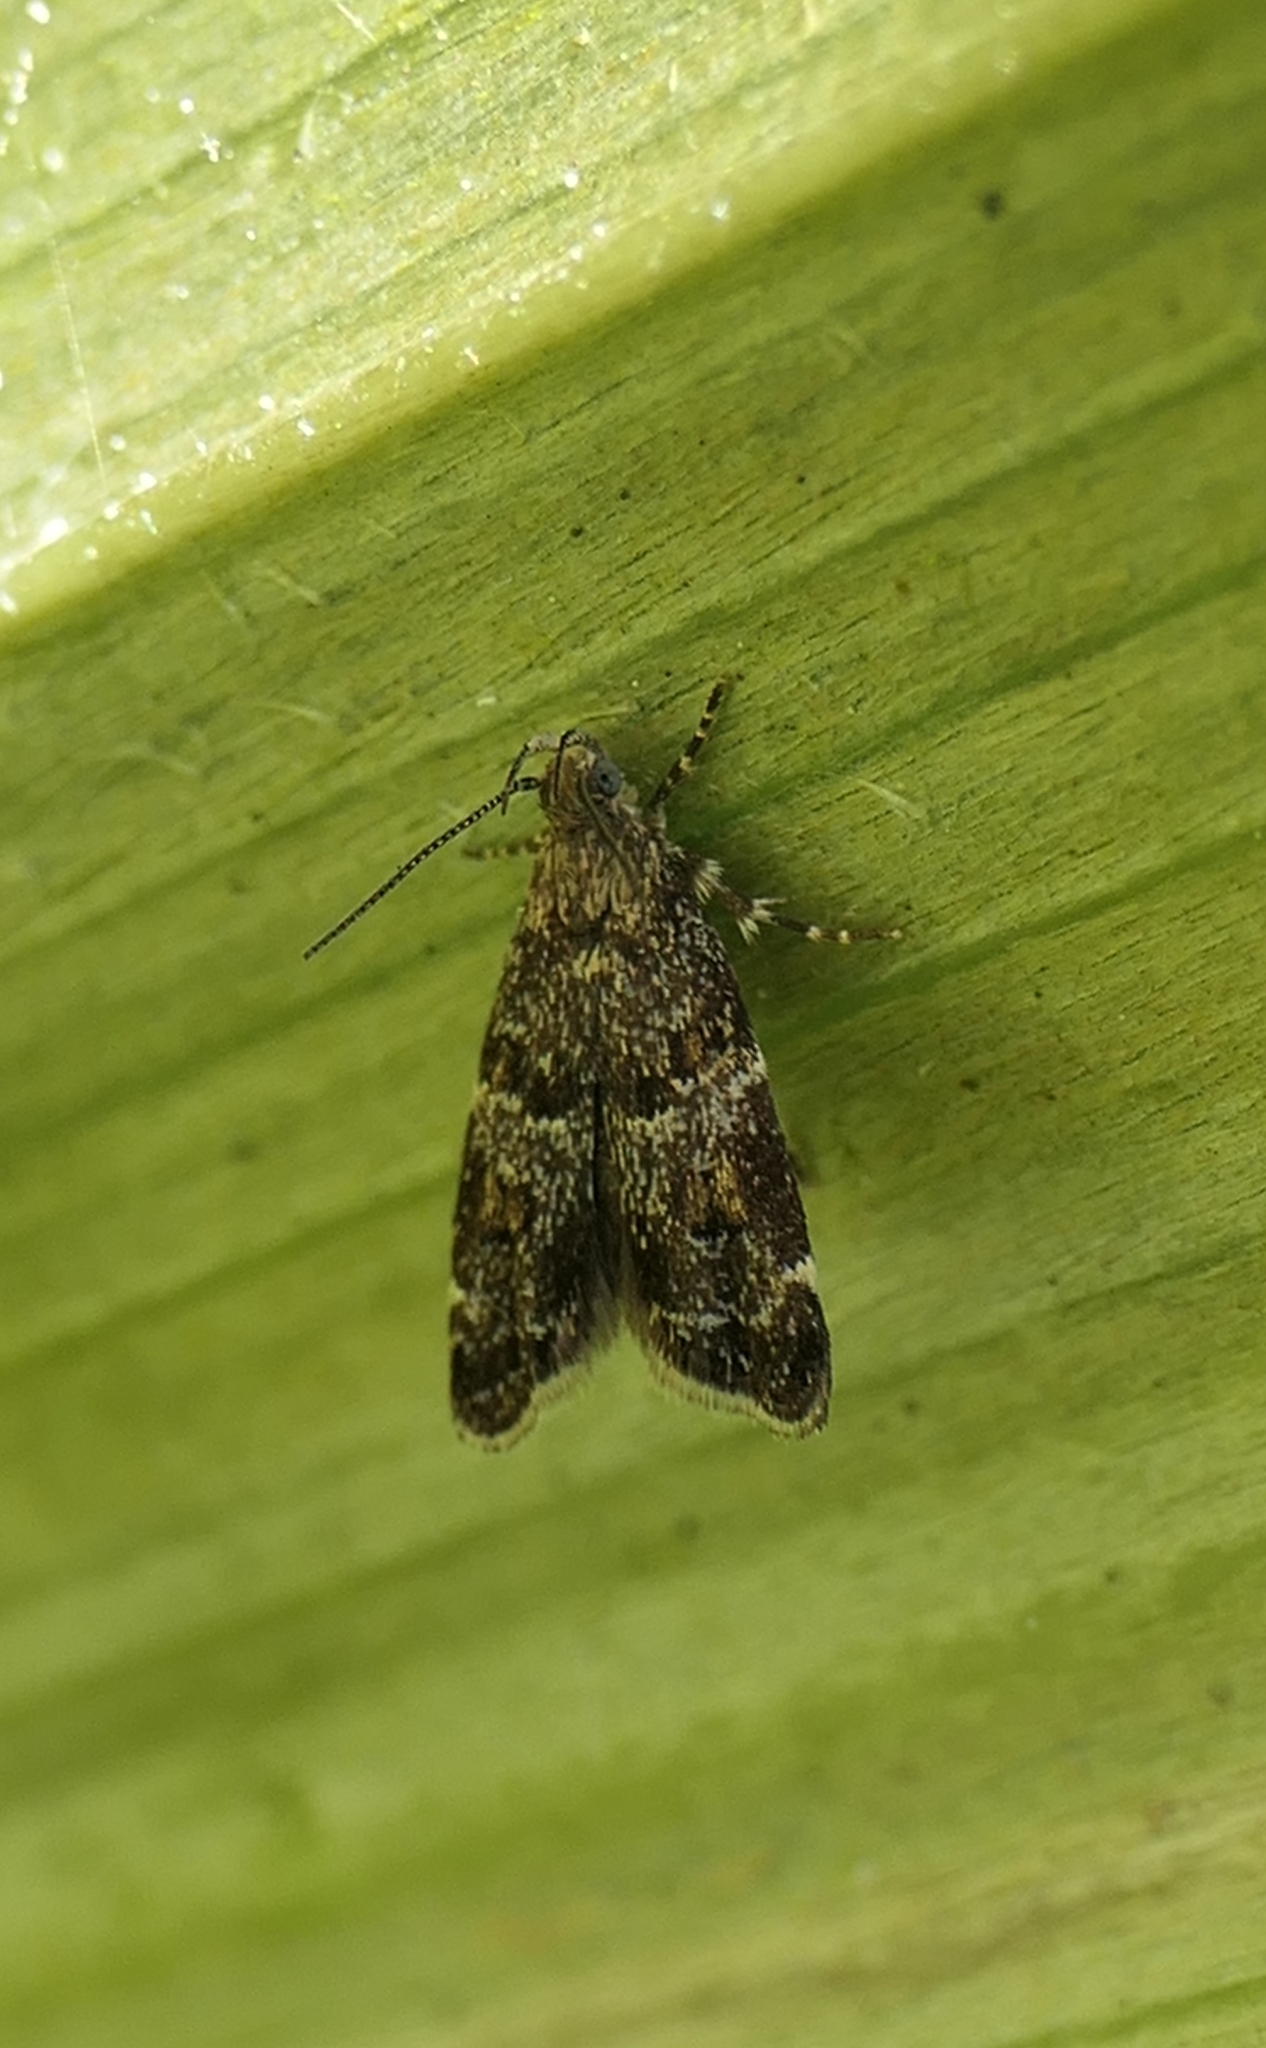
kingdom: Animalia
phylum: Arthropoda
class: Insecta
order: Lepidoptera
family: Oecophoridae
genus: Gymnobathra
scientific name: Gymnobathra omphalota
